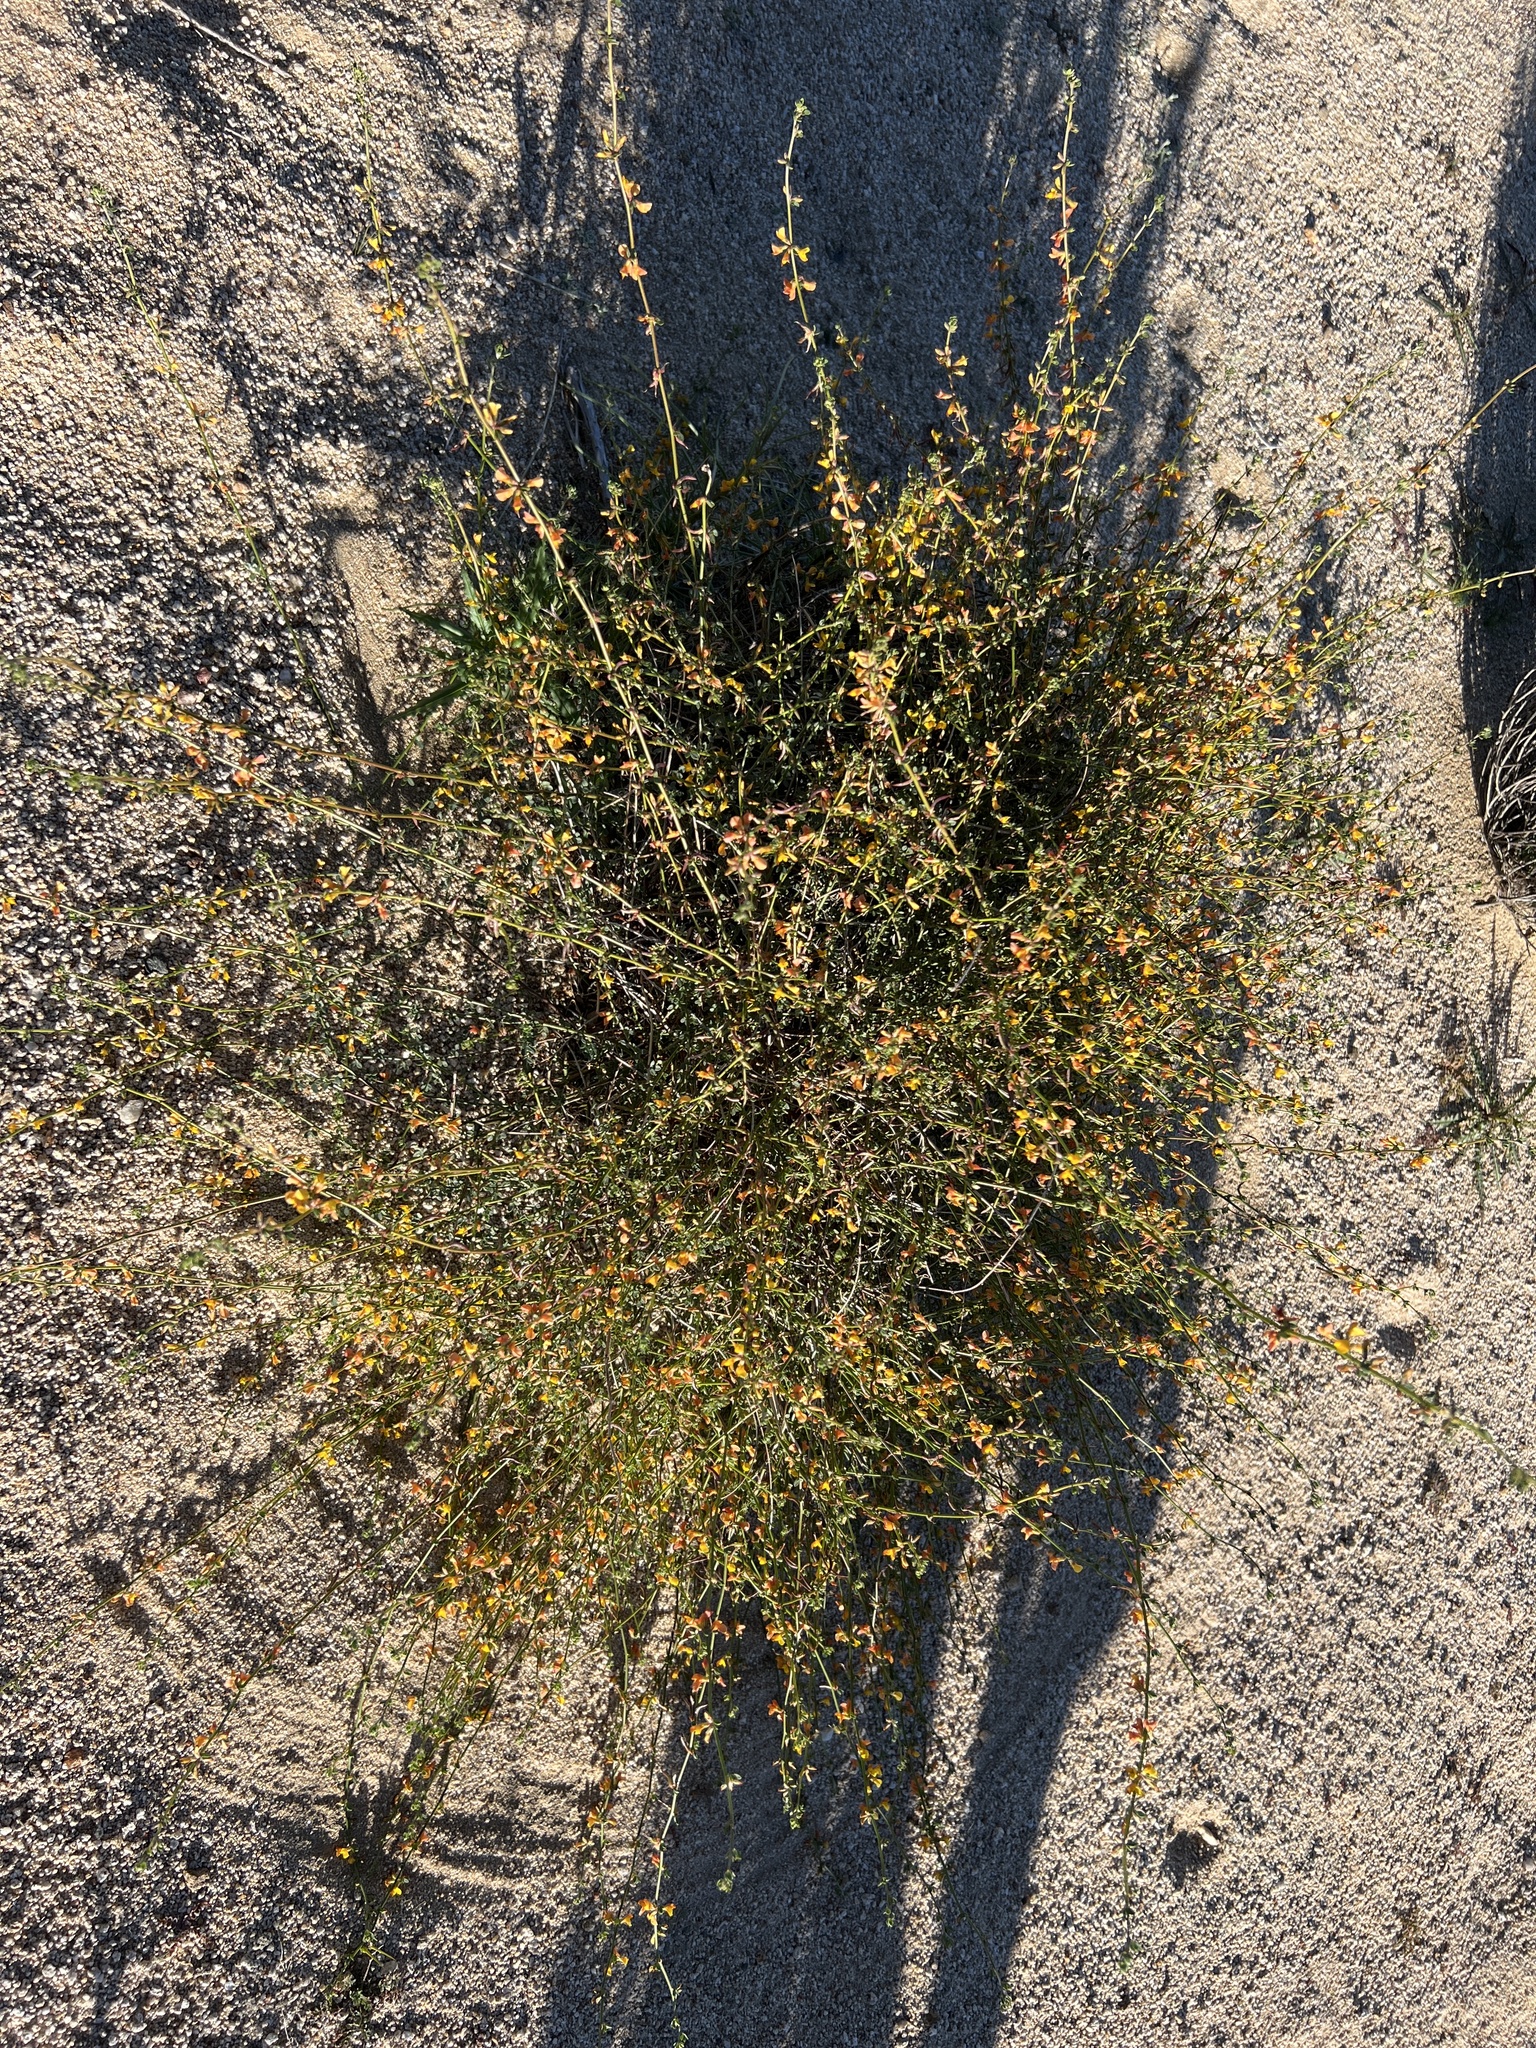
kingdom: Plantae
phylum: Tracheophyta
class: Magnoliopsida
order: Fabales
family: Fabaceae
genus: Acmispon
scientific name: Acmispon glaber
